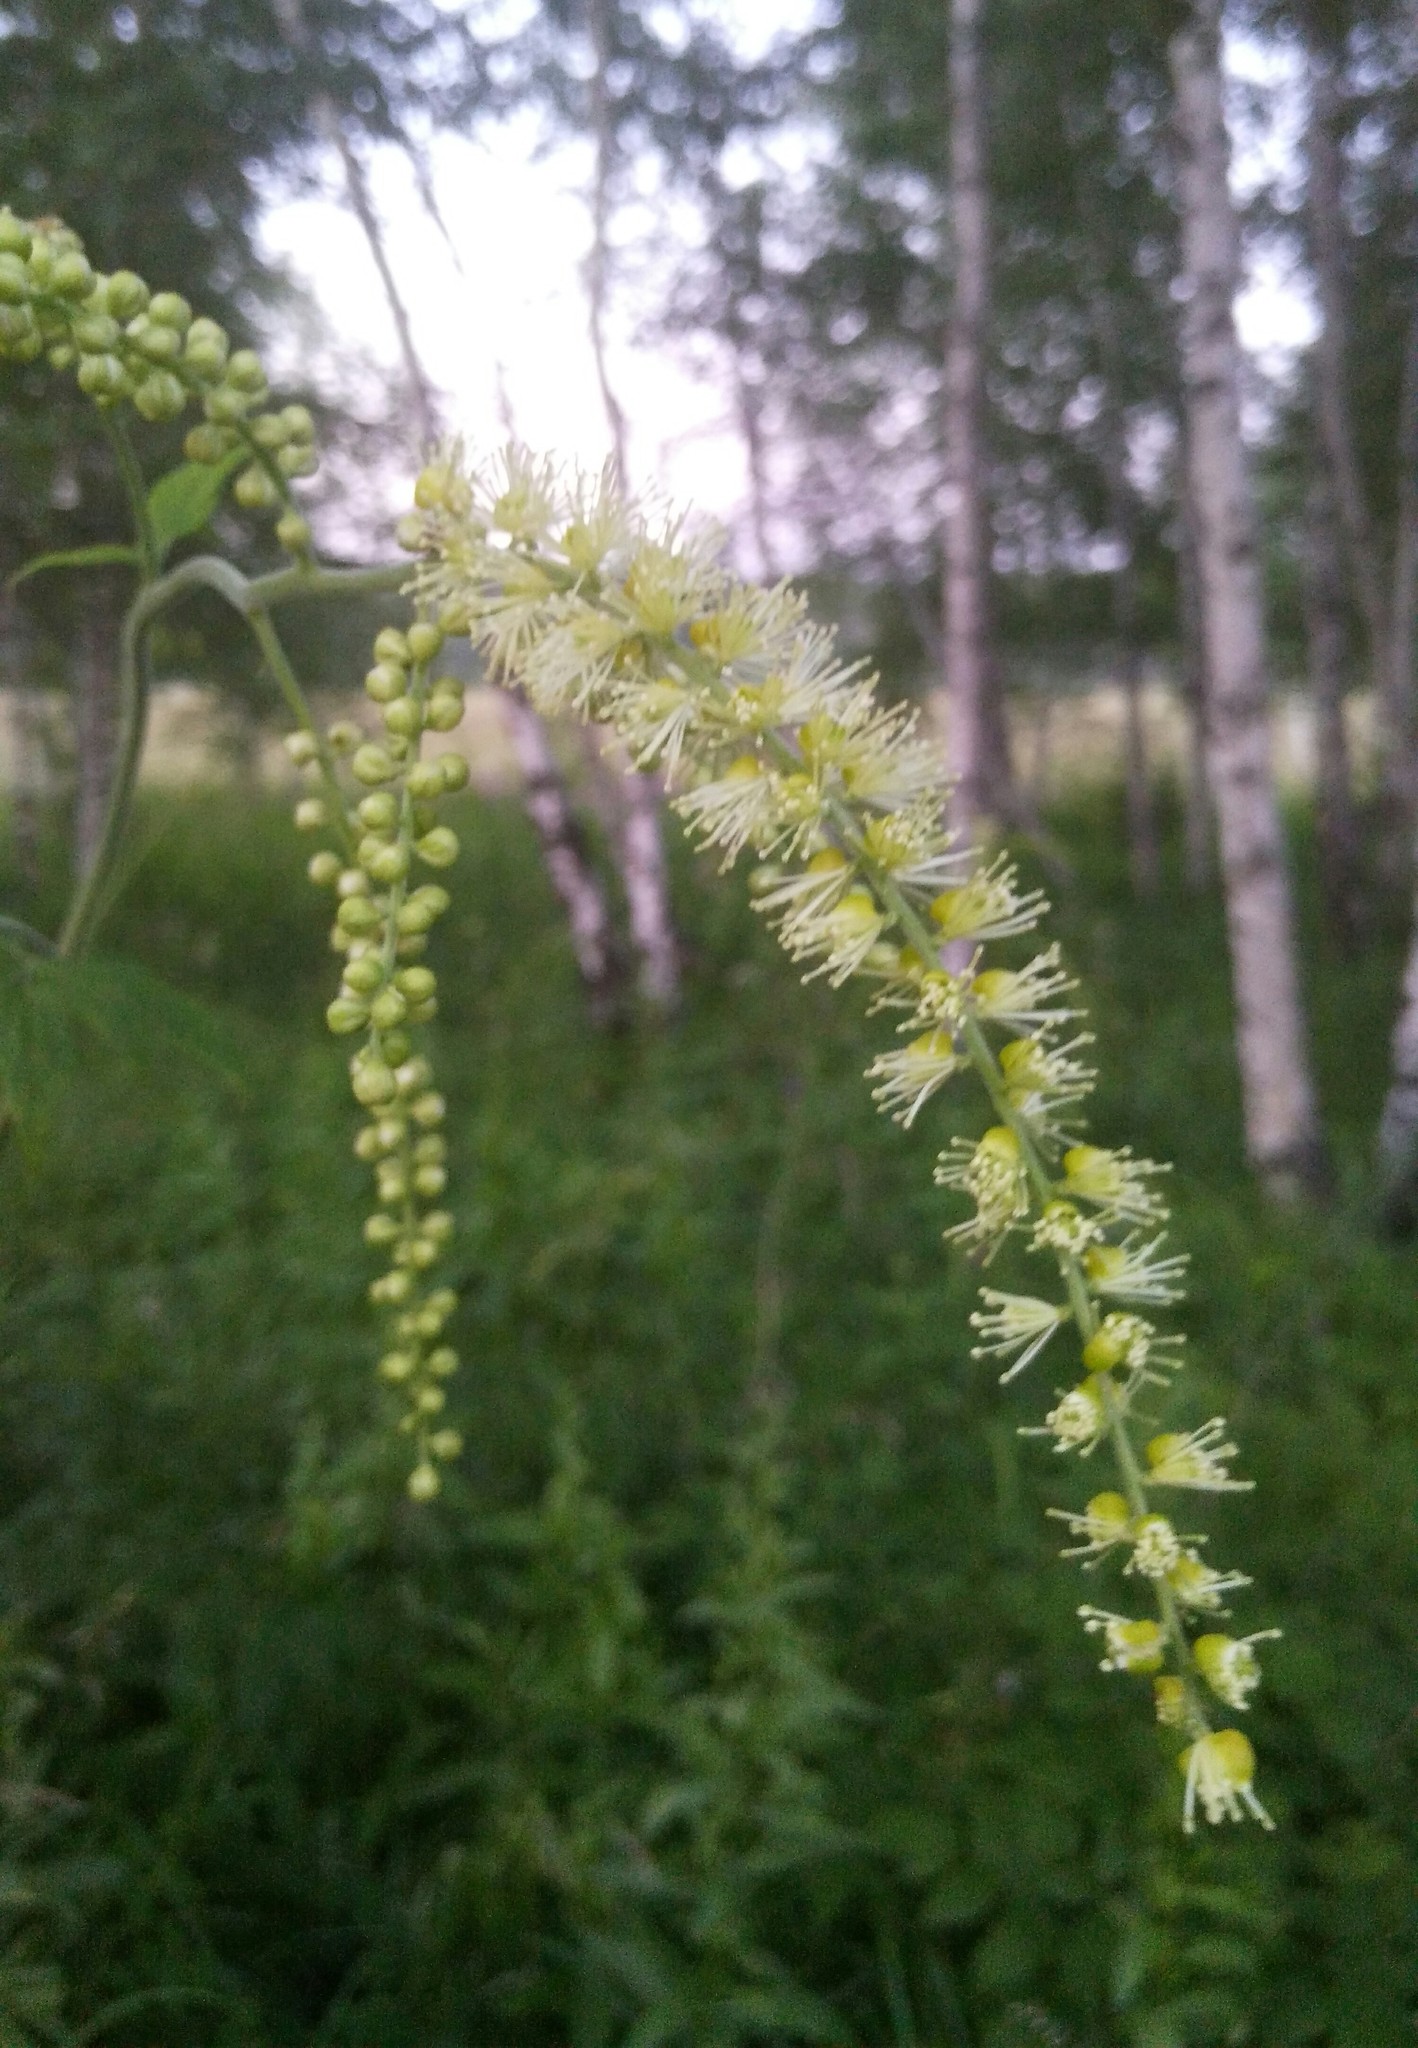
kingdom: Plantae
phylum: Tracheophyta
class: Magnoliopsida
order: Ranunculales
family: Ranunculaceae
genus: Actaea
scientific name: Actaea cimicifuga
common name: Chinese cimicifuga
